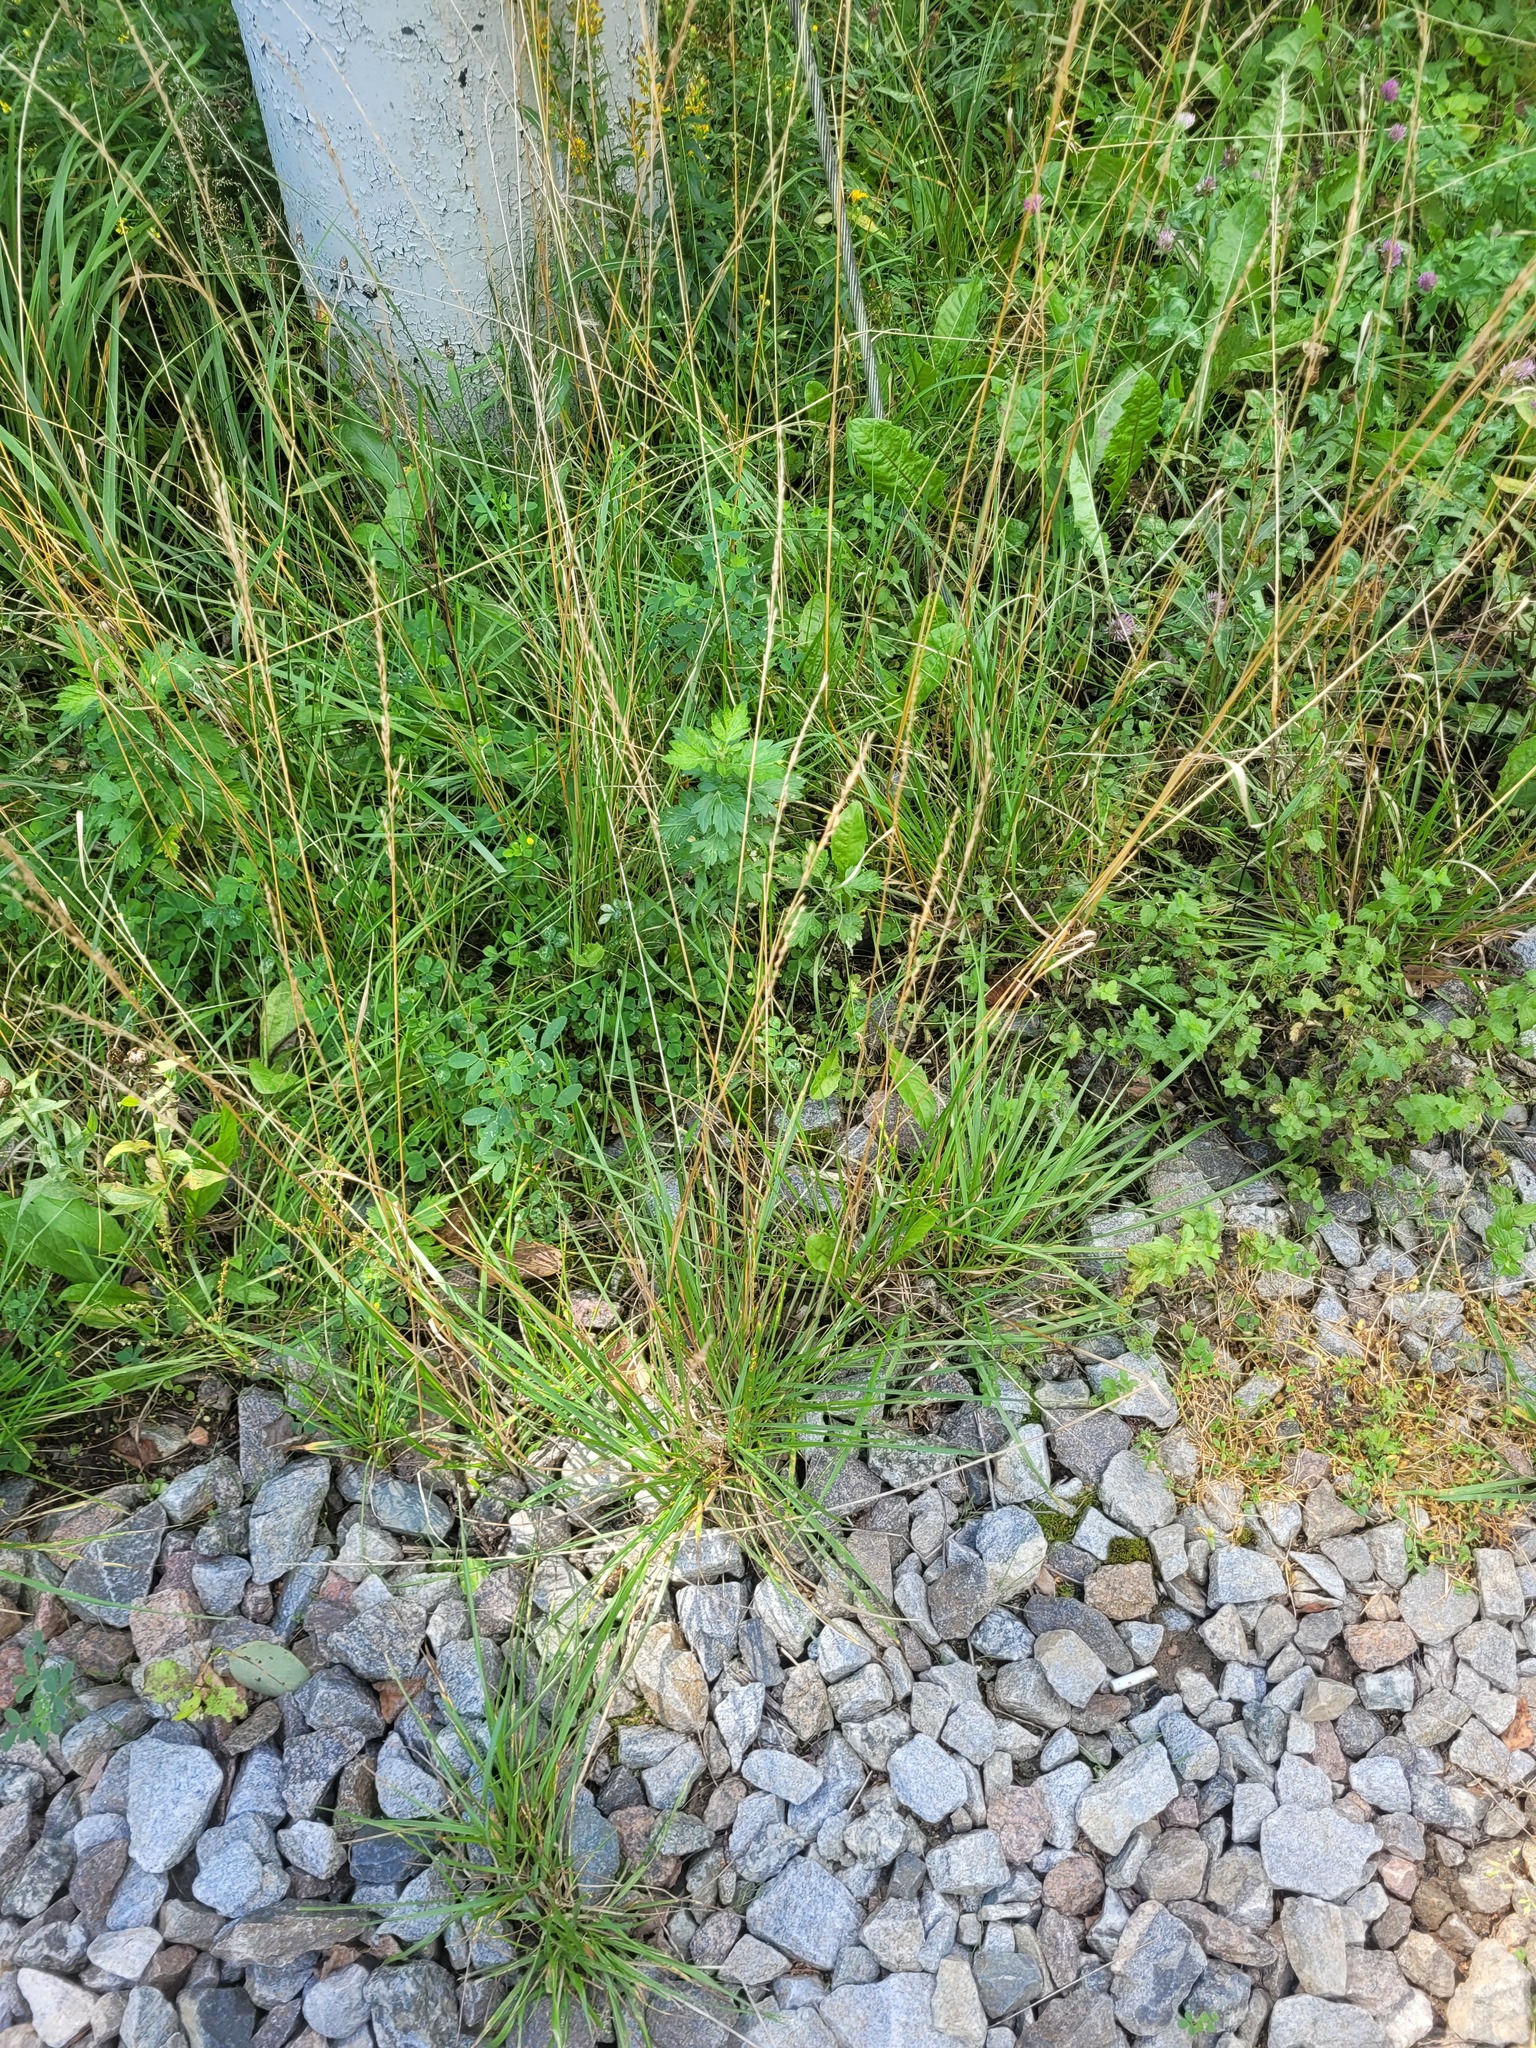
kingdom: Plantae
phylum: Tracheophyta
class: Liliopsida
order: Poales
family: Poaceae
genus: Lolium
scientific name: Lolium pratense
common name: Dover grass
